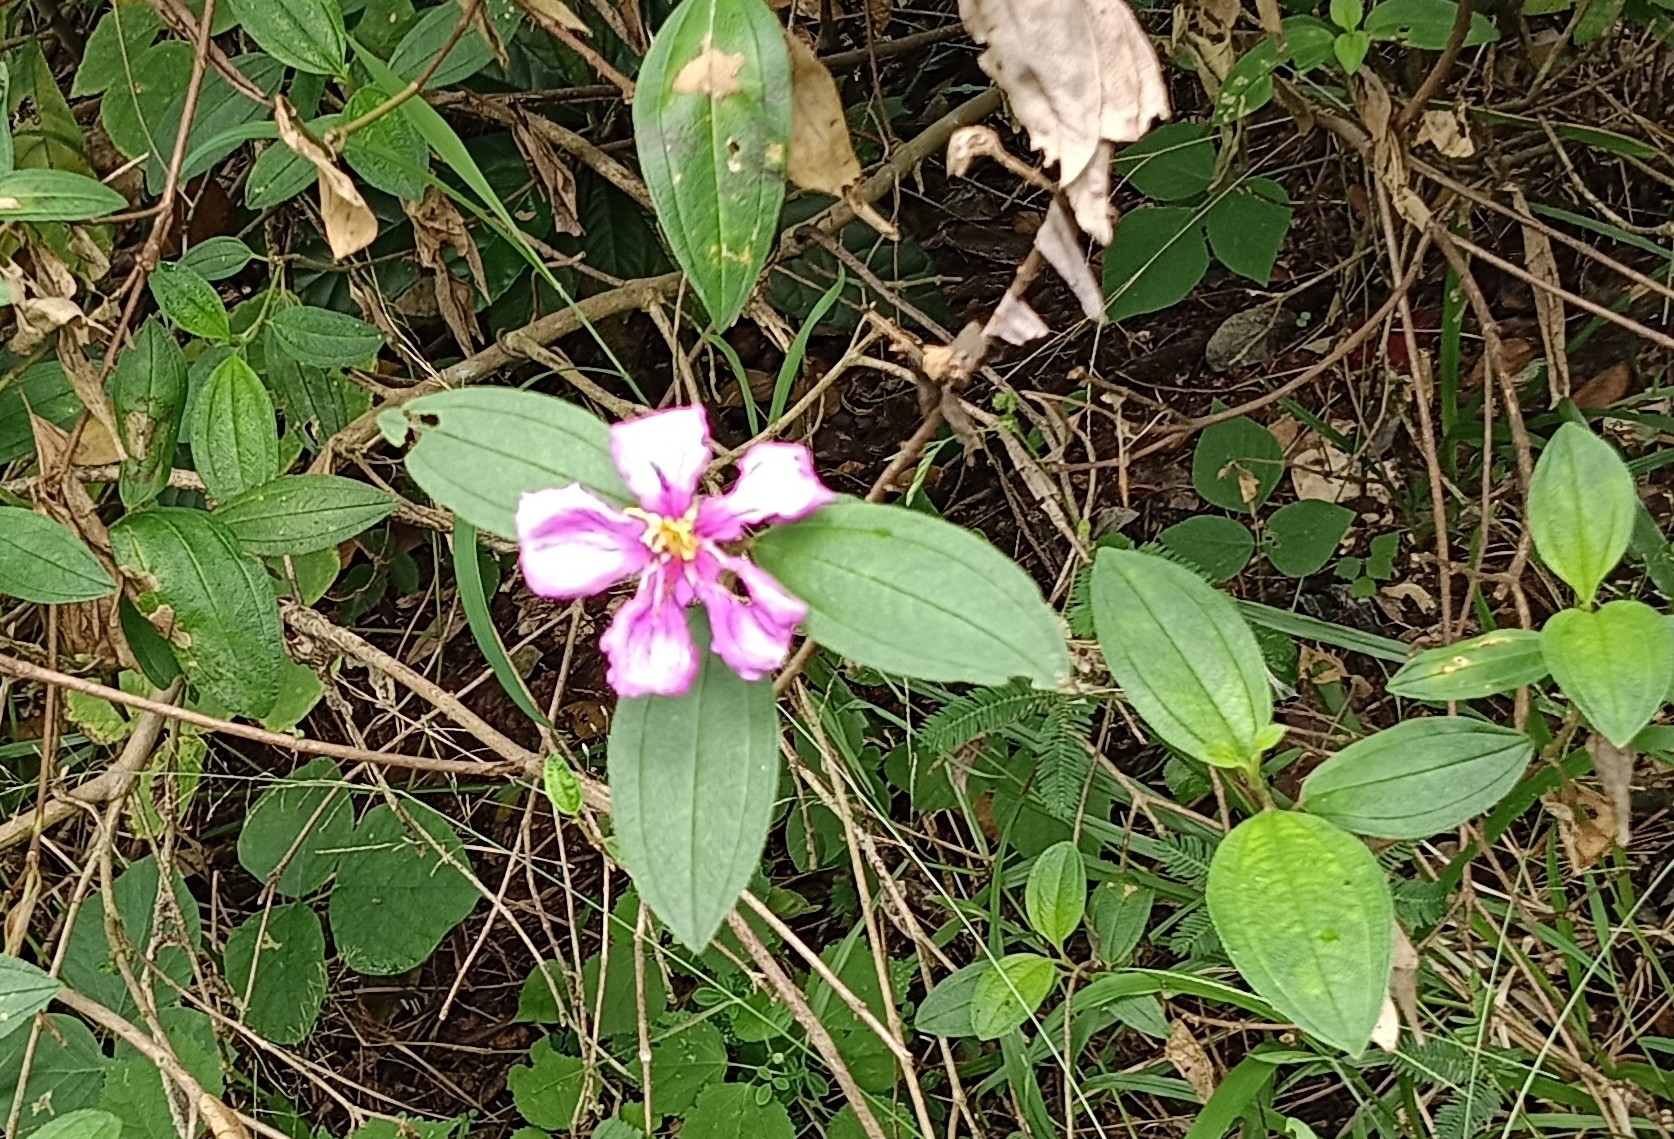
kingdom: Plantae
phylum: Tracheophyta
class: Magnoliopsida
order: Myrtales
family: Melastomataceae
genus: Melastoma
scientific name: Melastoma malabathricum
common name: Indian-rhododendron
